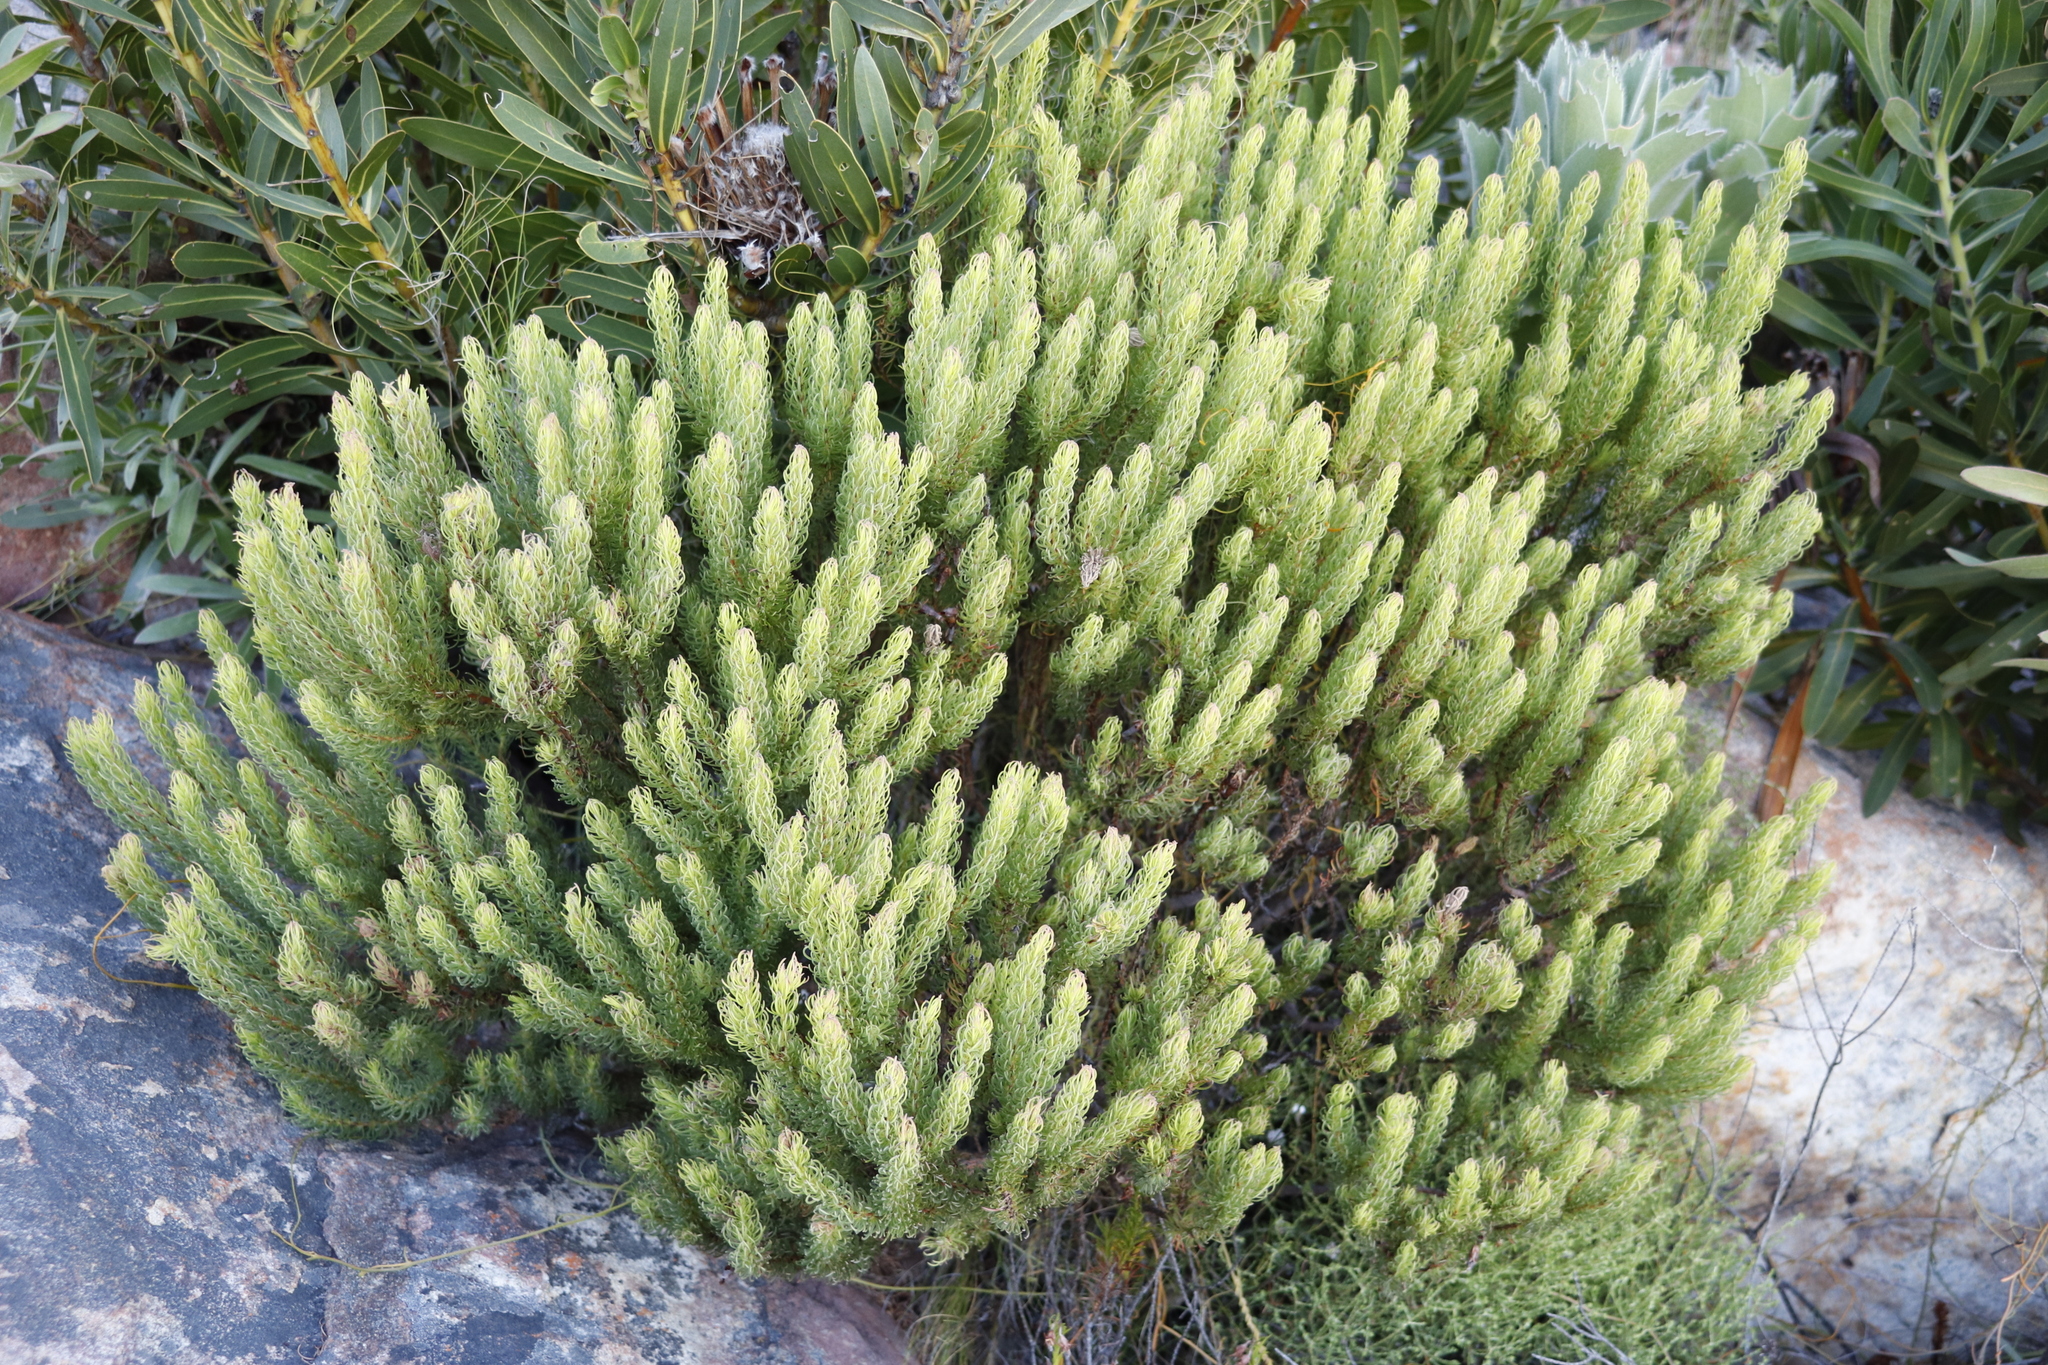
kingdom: Plantae
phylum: Tracheophyta
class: Magnoliopsida
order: Ericales
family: Ericaceae
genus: Erica
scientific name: Erica plukenetii
